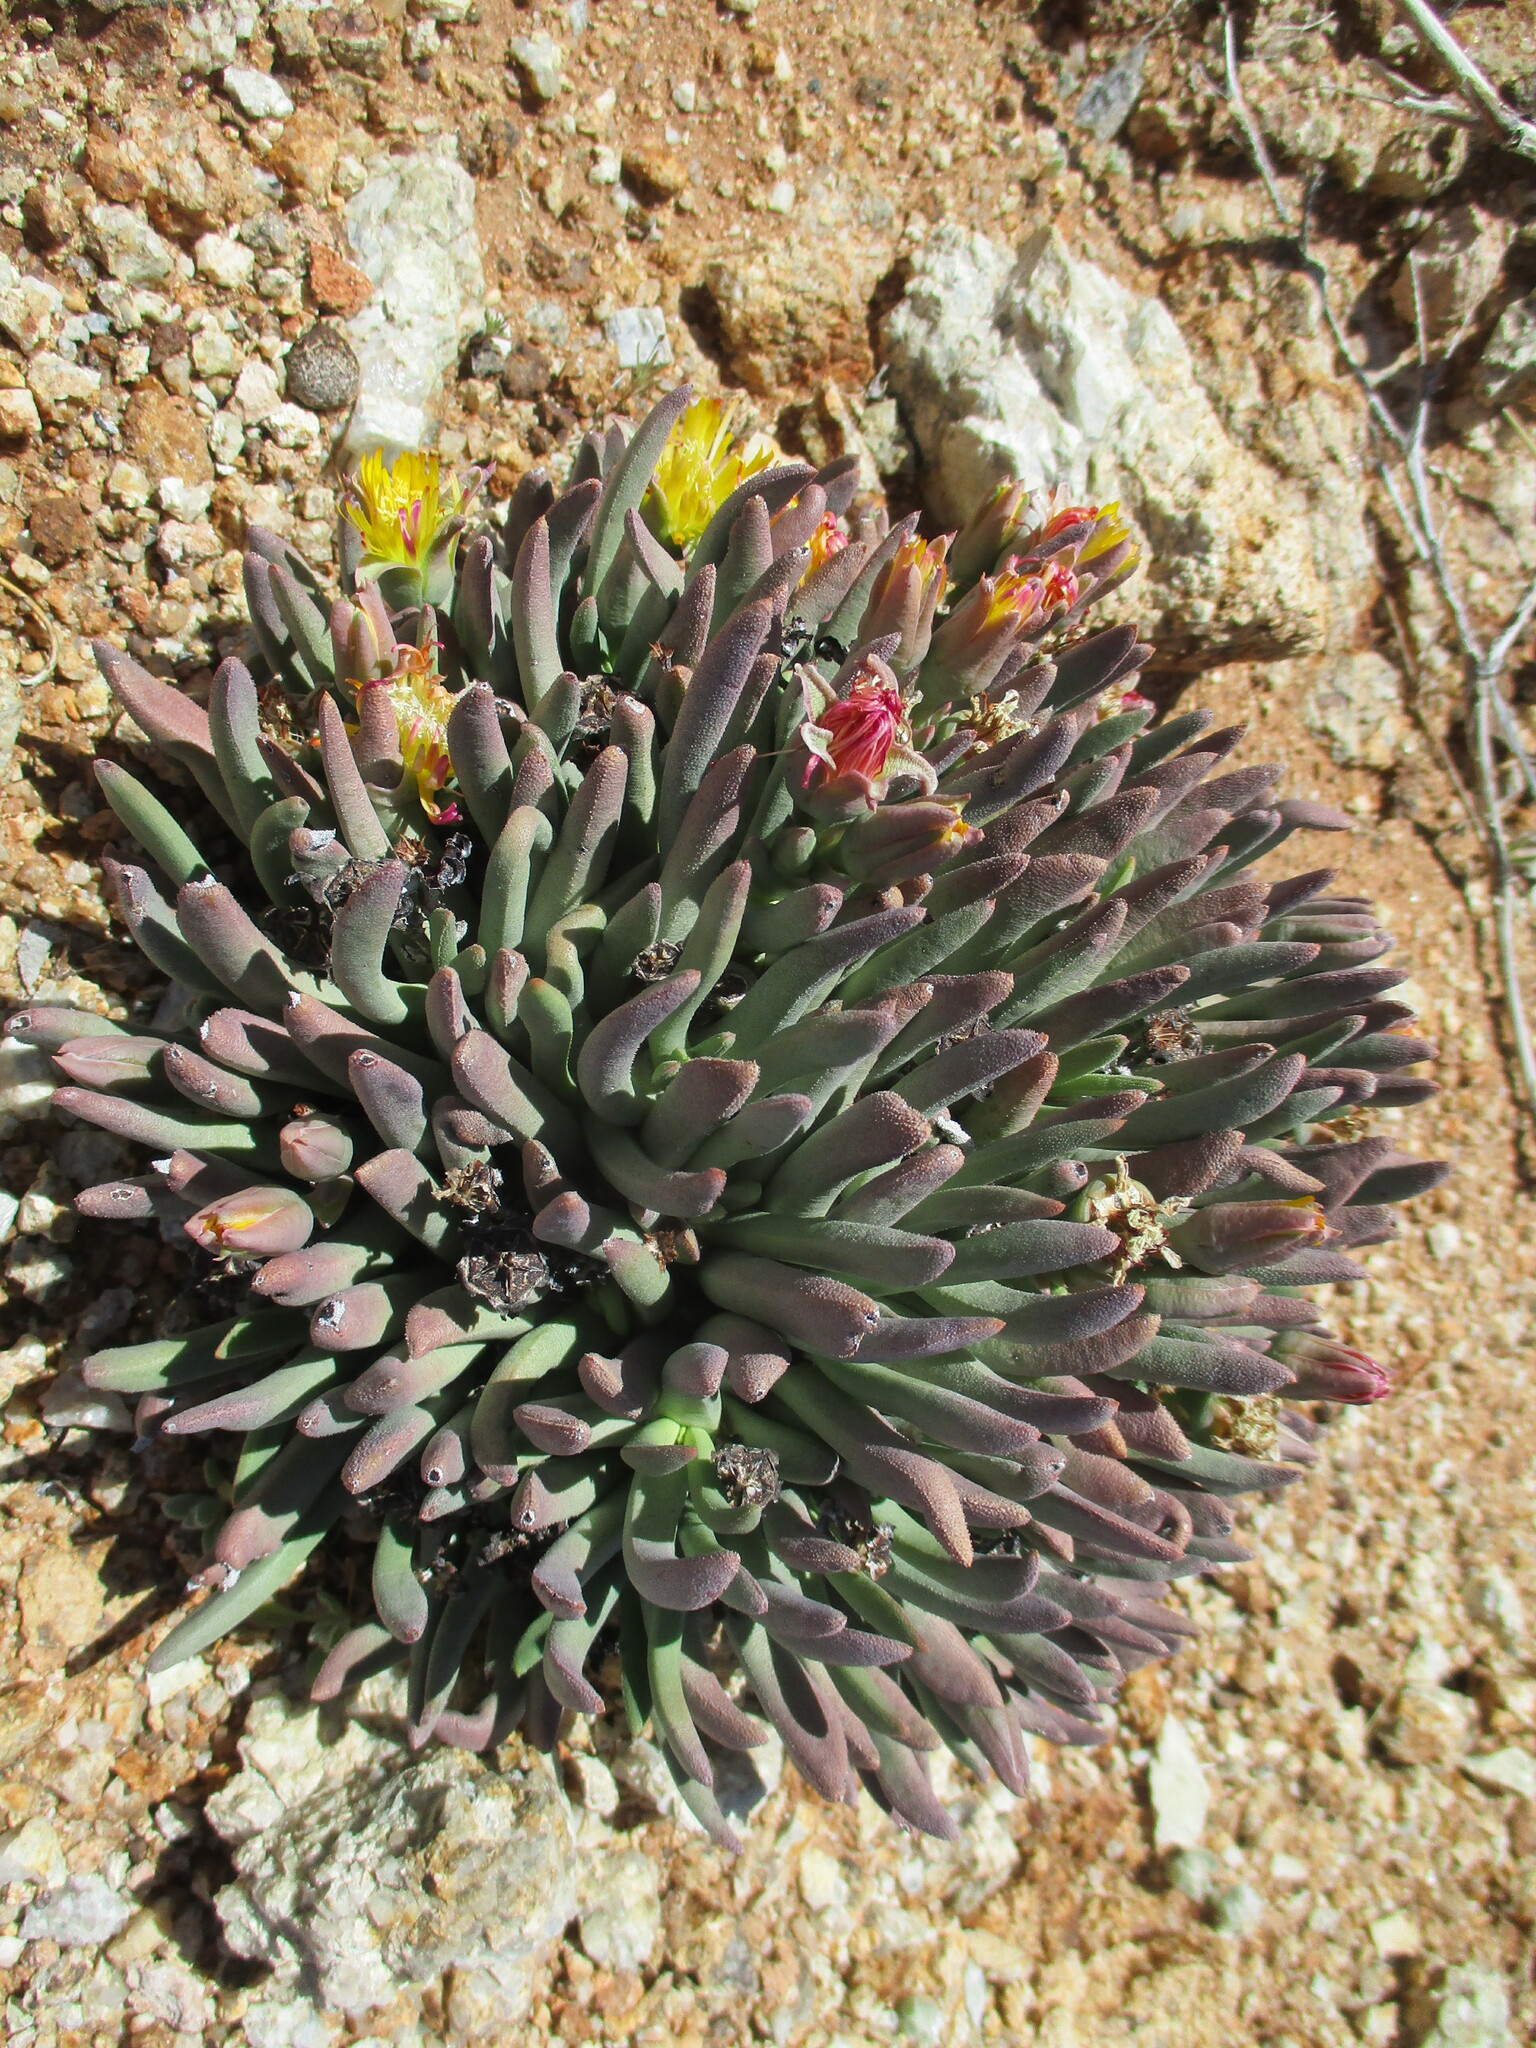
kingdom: Plantae
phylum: Tracheophyta
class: Magnoliopsida
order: Caryophyllales
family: Aizoaceae
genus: Dracophilus
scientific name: Dracophilus Hereroa puttkameriana
